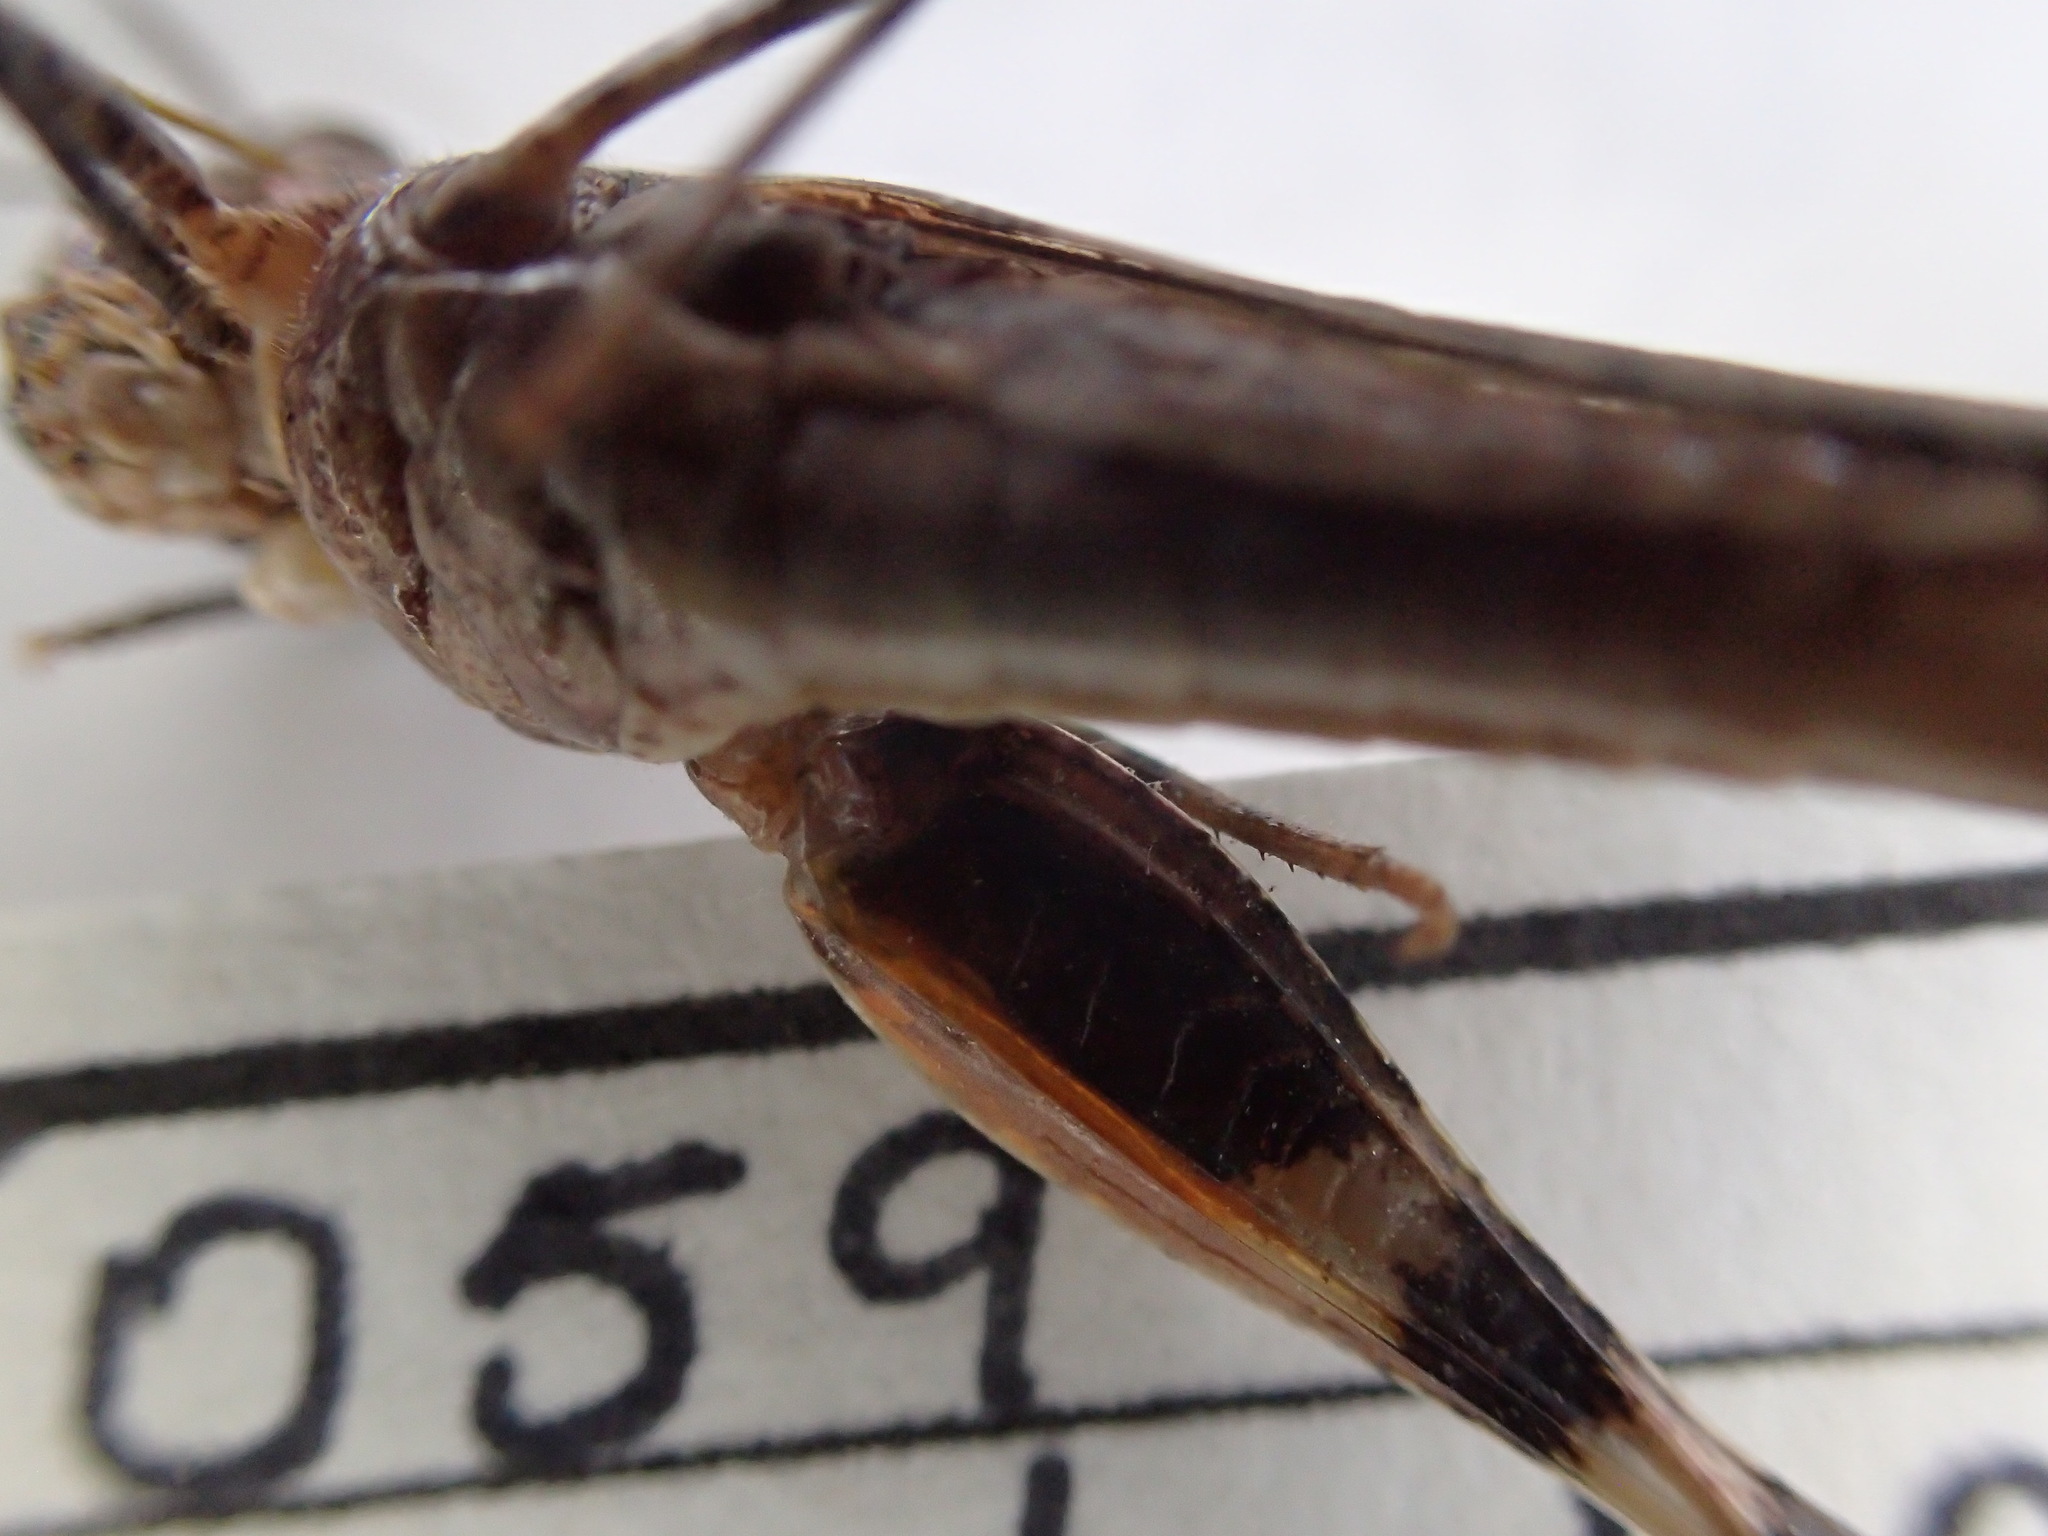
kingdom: Animalia
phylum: Arthropoda
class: Insecta
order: Orthoptera
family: Acrididae
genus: Austroicetes
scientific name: Austroicetes vulgaris
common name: Southeastern austroicetes
